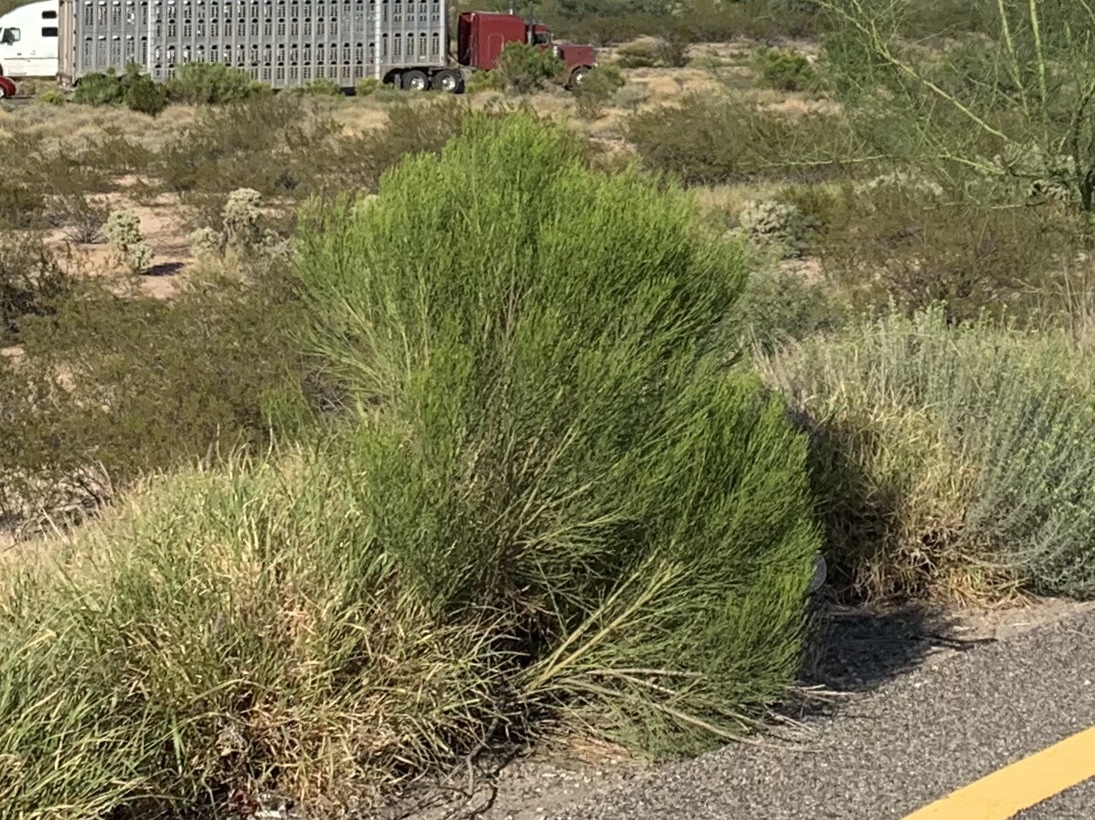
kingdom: Plantae
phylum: Tracheophyta
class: Magnoliopsida
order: Asterales
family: Asteraceae
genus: Baccharis
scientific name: Baccharis sarothroides
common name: Desert-broom
